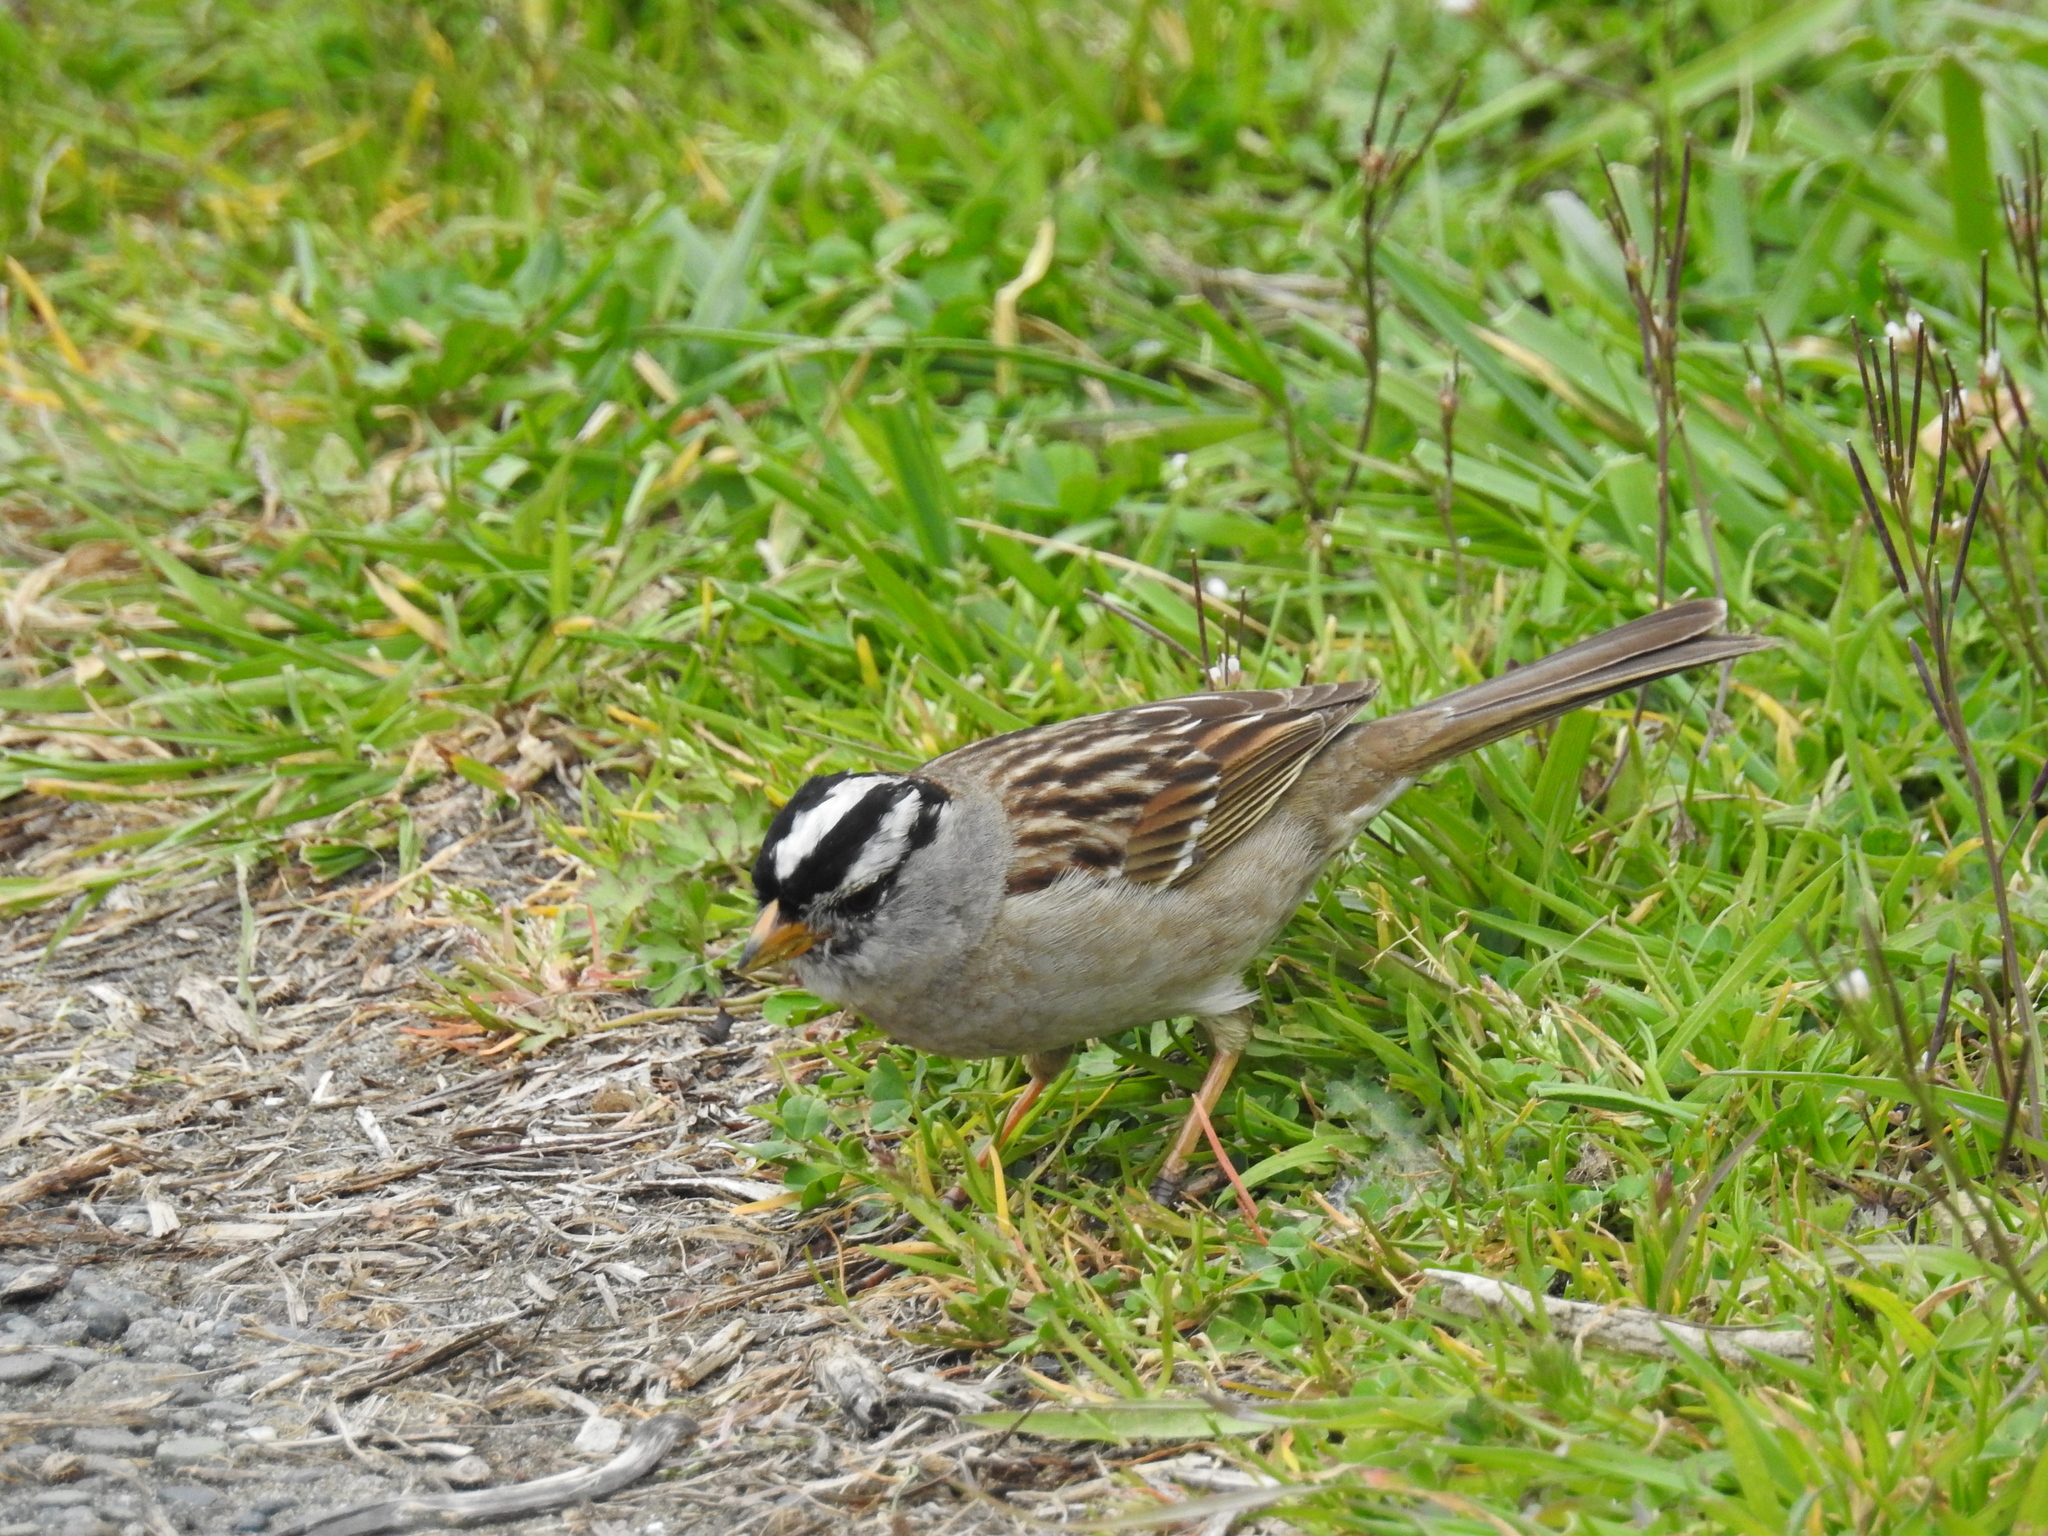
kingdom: Animalia
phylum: Chordata
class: Aves
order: Passeriformes
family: Passerellidae
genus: Zonotrichia
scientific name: Zonotrichia leucophrys
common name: White-crowned sparrow
